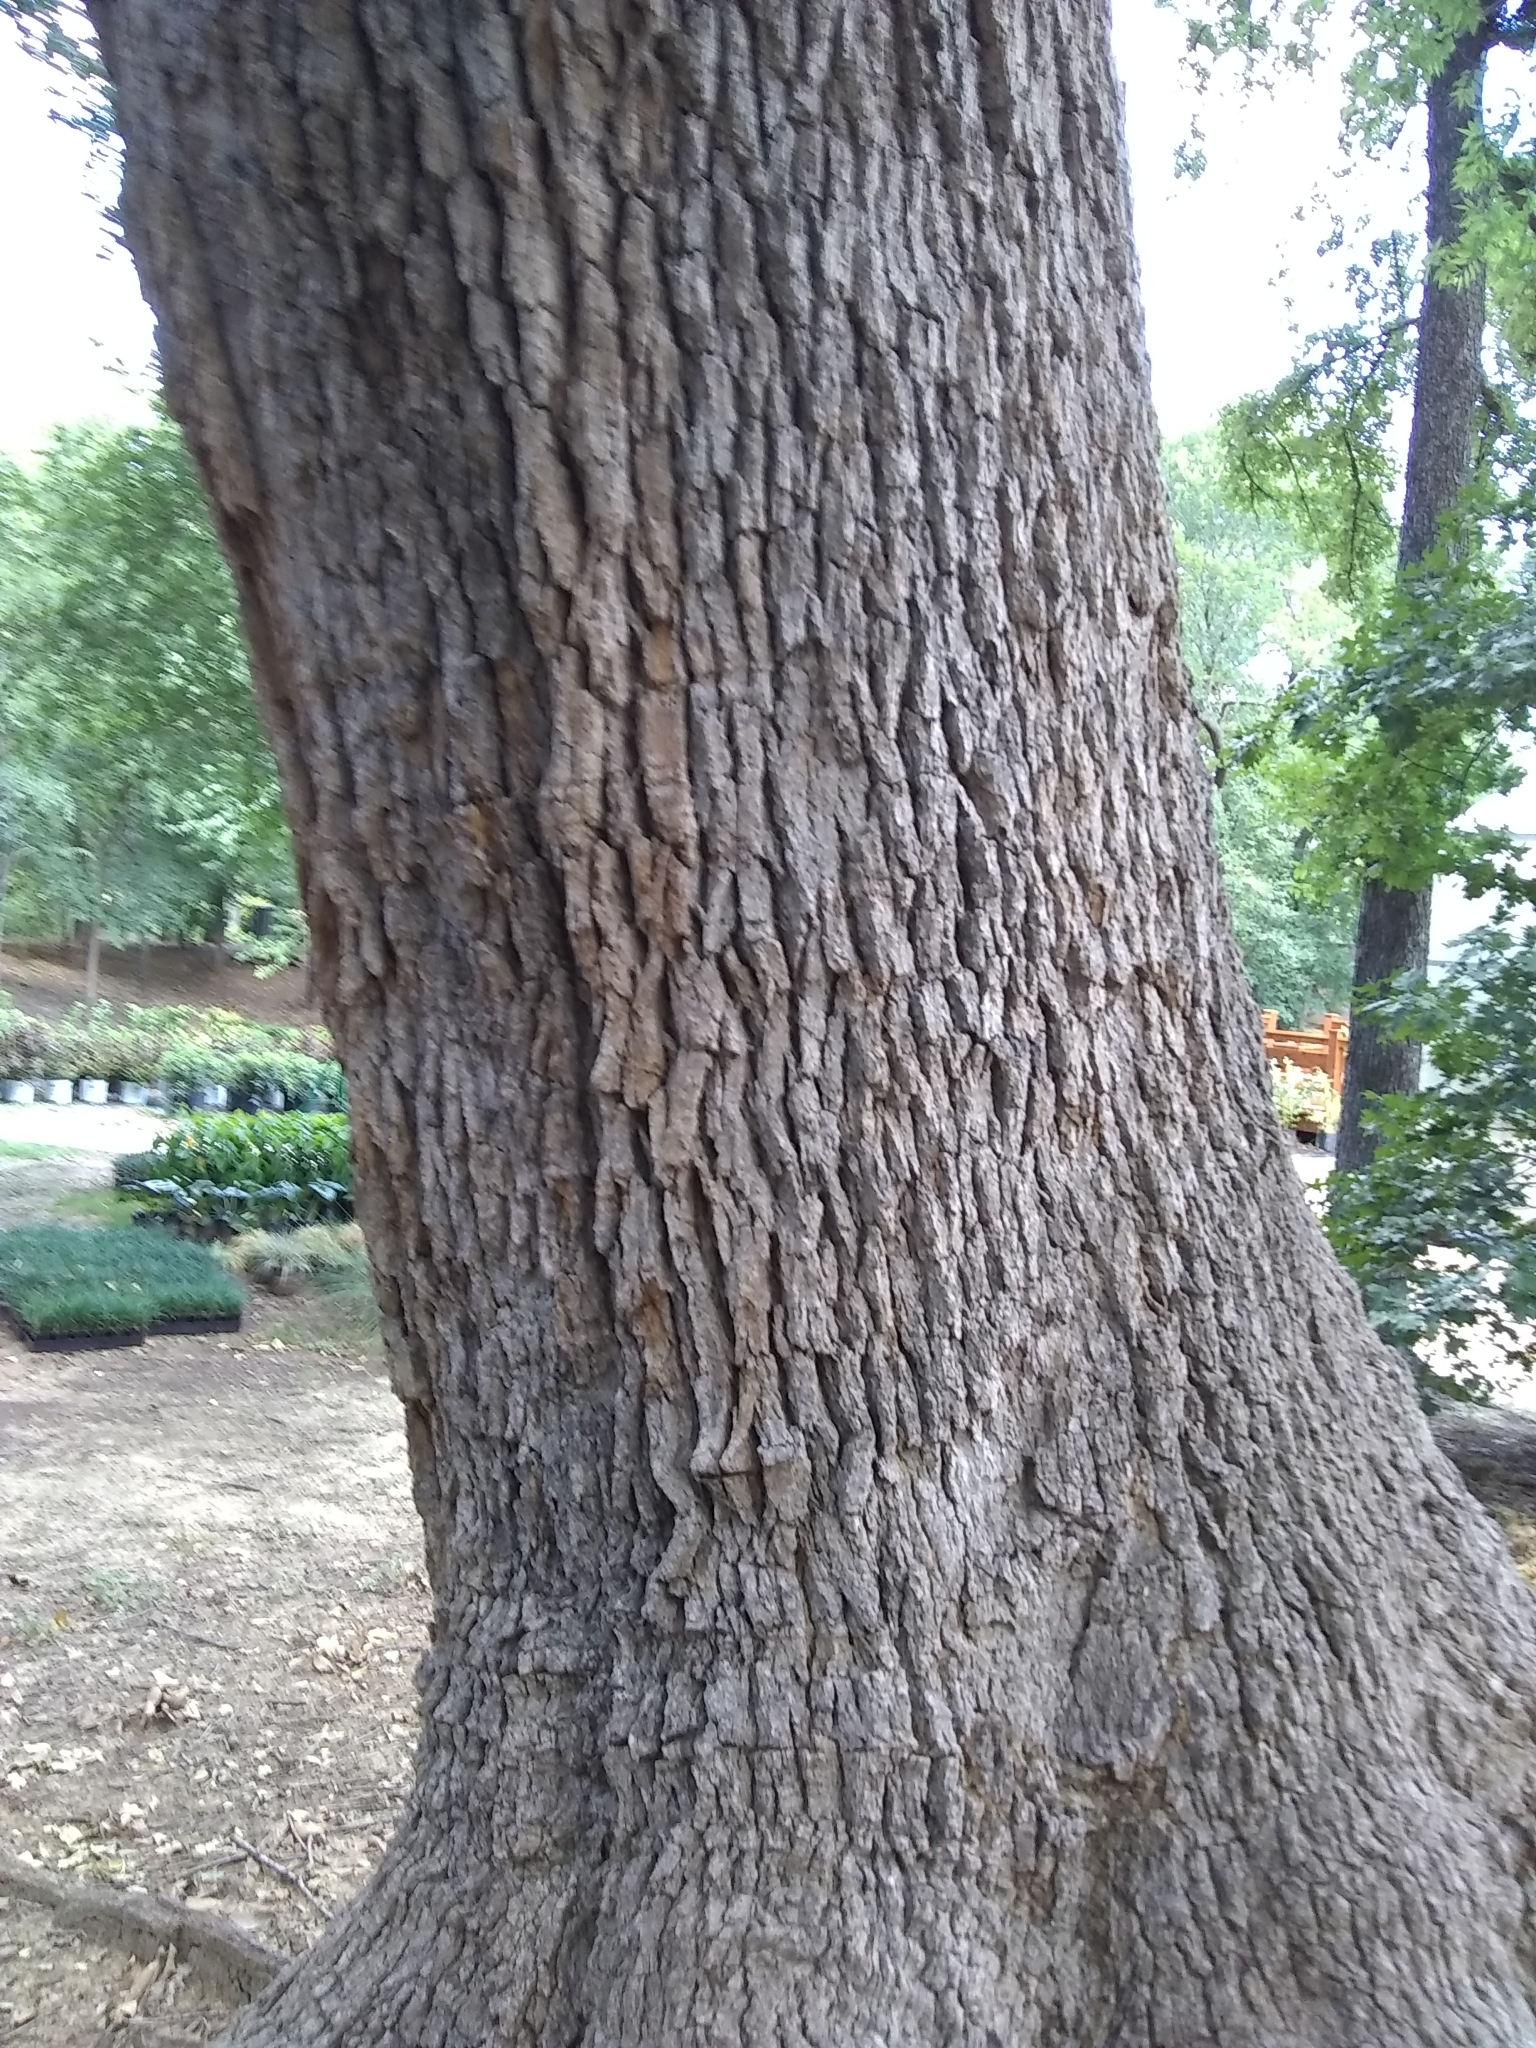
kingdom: Plantae
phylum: Tracheophyta
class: Magnoliopsida
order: Fagales
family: Fagaceae
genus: Quercus
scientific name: Quercus stellata
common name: Post oak
